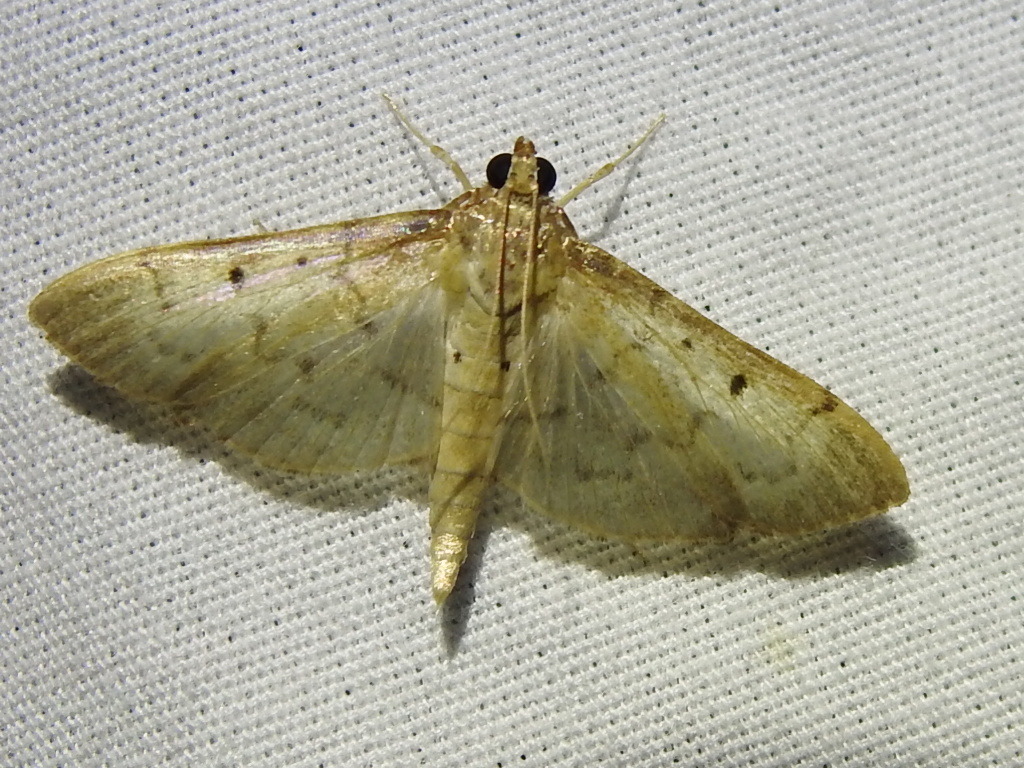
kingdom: Animalia
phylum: Arthropoda
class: Insecta
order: Lepidoptera
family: Crambidae
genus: Herpetogramma
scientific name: Herpetogramma bipunctalis
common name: Southern beet webworm
